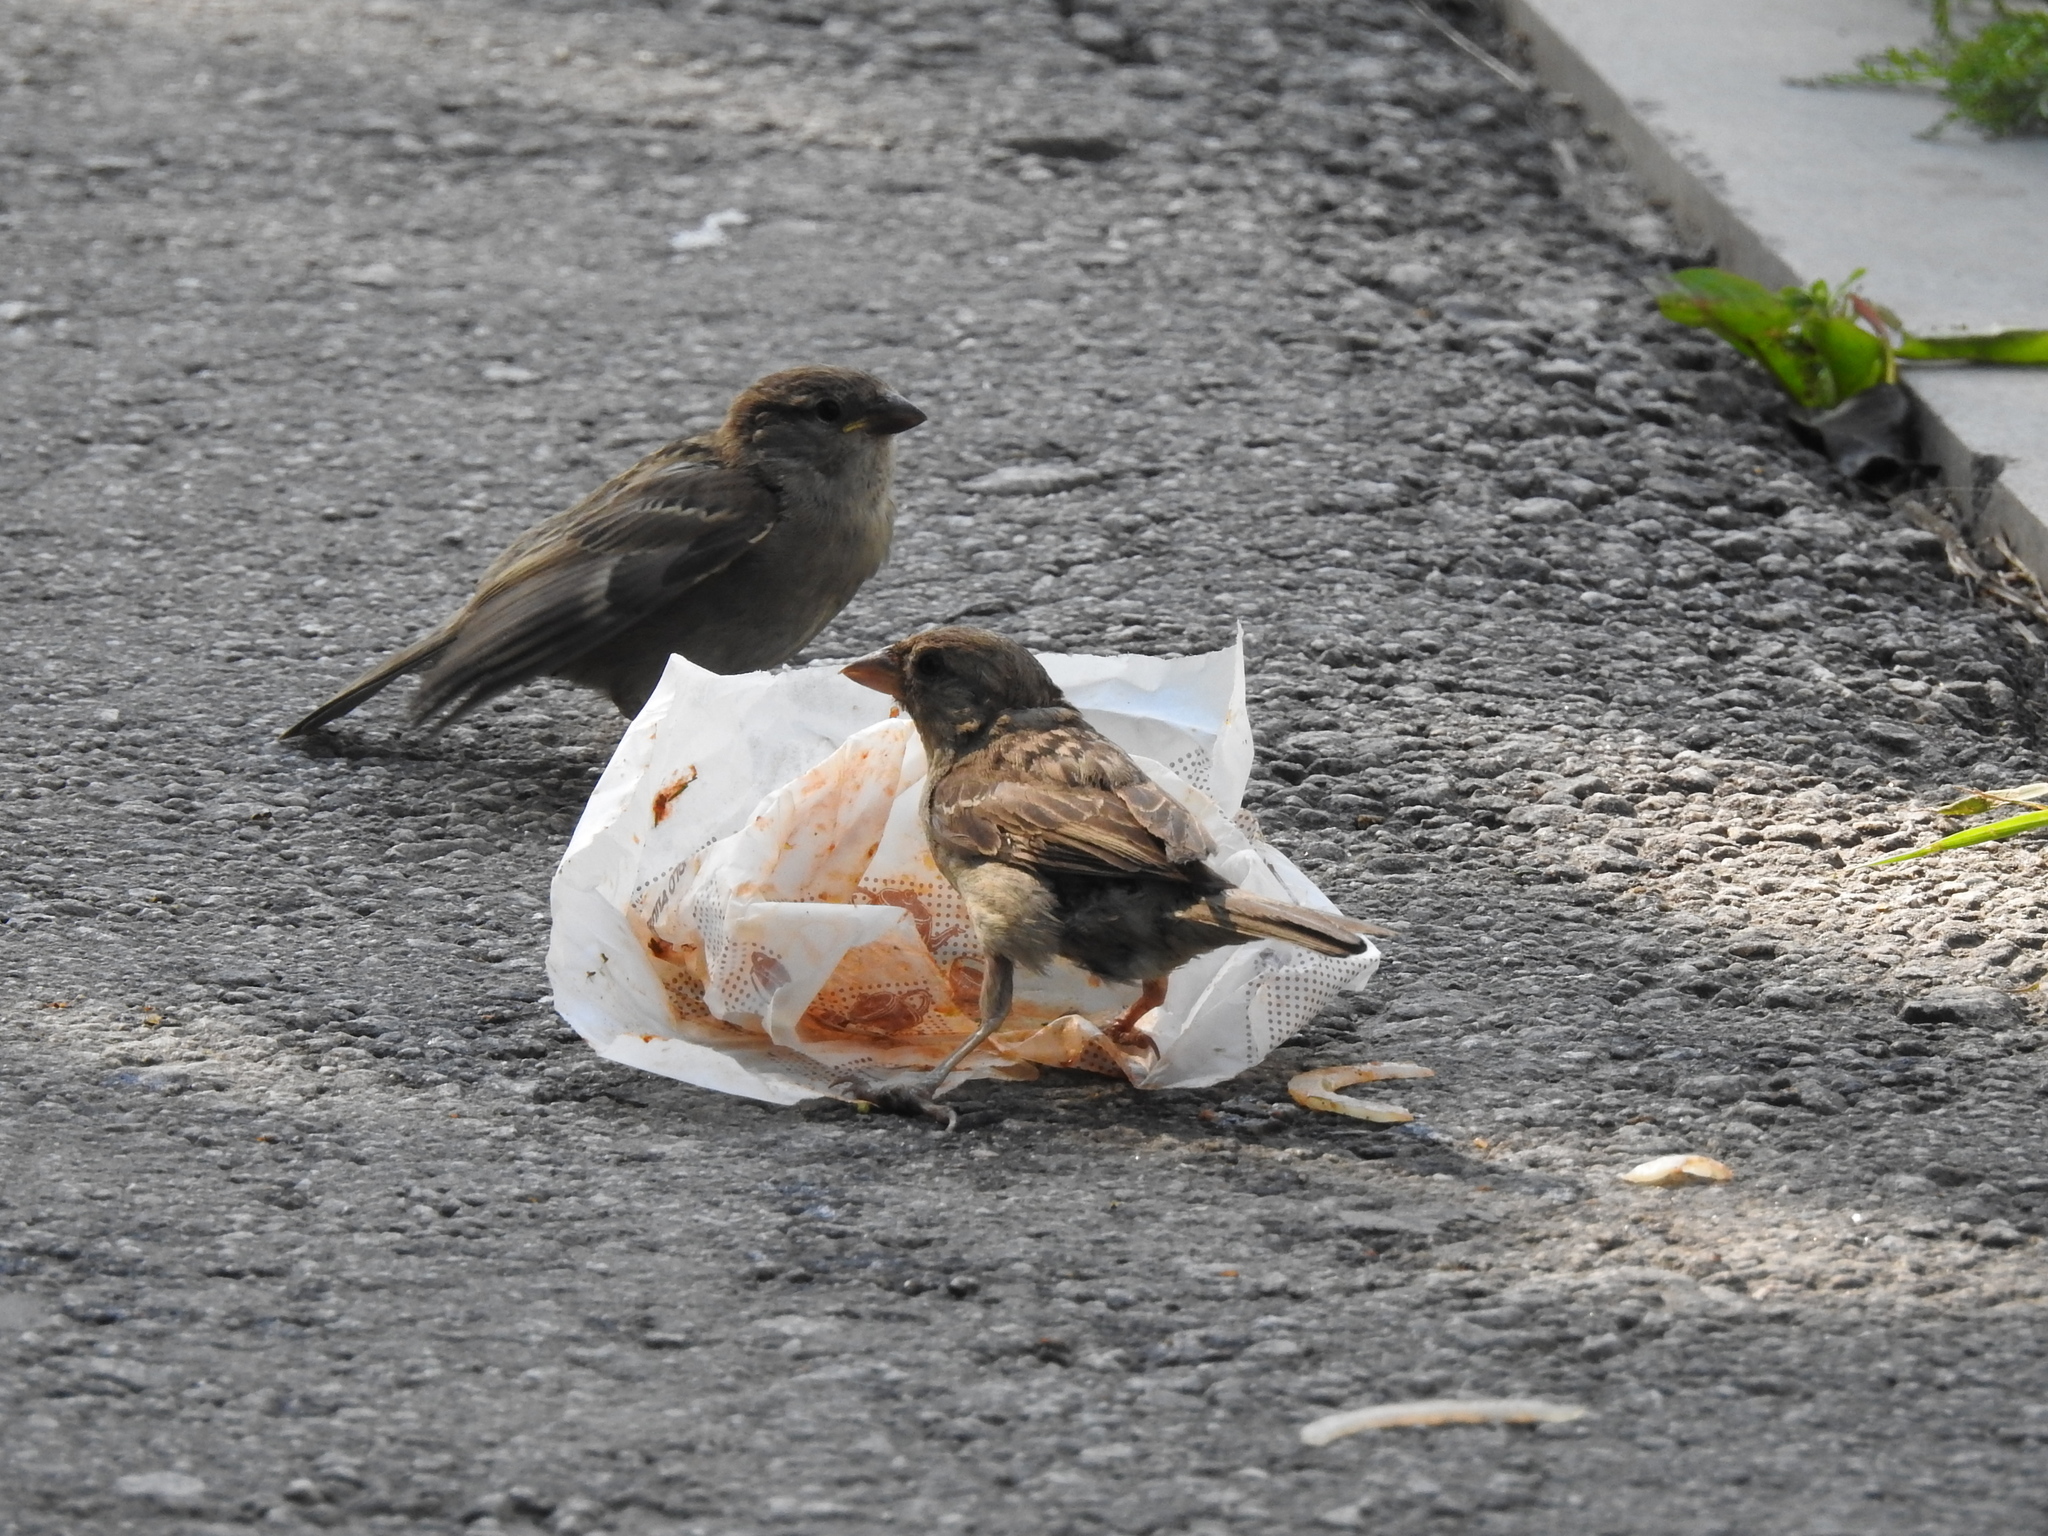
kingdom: Animalia
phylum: Chordata
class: Aves
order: Passeriformes
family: Passeridae
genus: Passer
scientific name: Passer domesticus
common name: House sparrow
